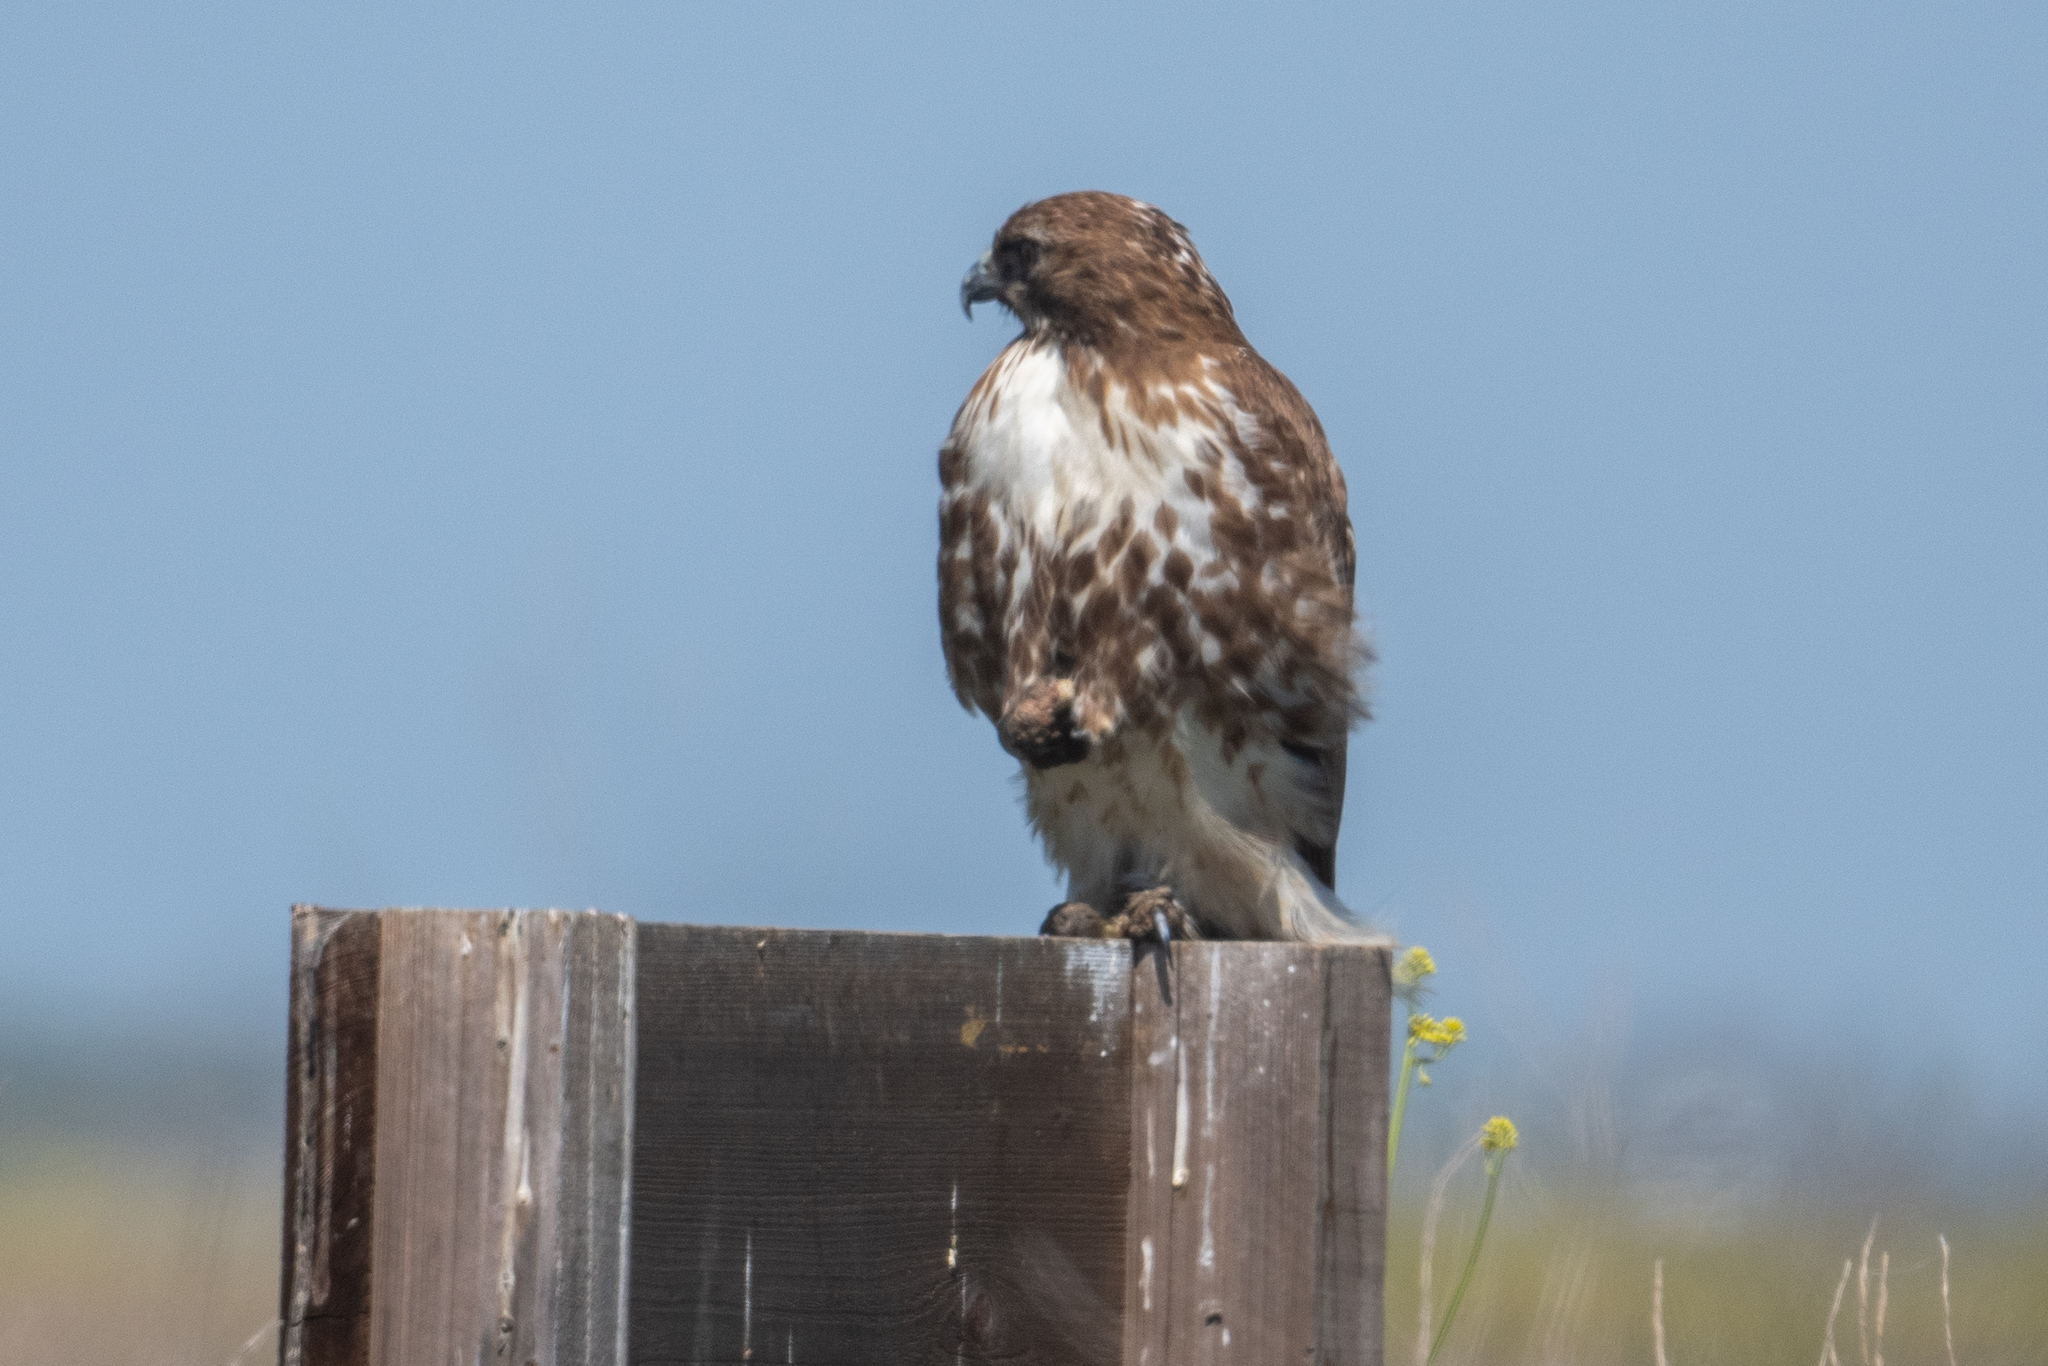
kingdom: Animalia
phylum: Chordata
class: Aves
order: Accipitriformes
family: Accipitridae
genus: Buteo
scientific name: Buteo jamaicensis
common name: Red-tailed hawk
